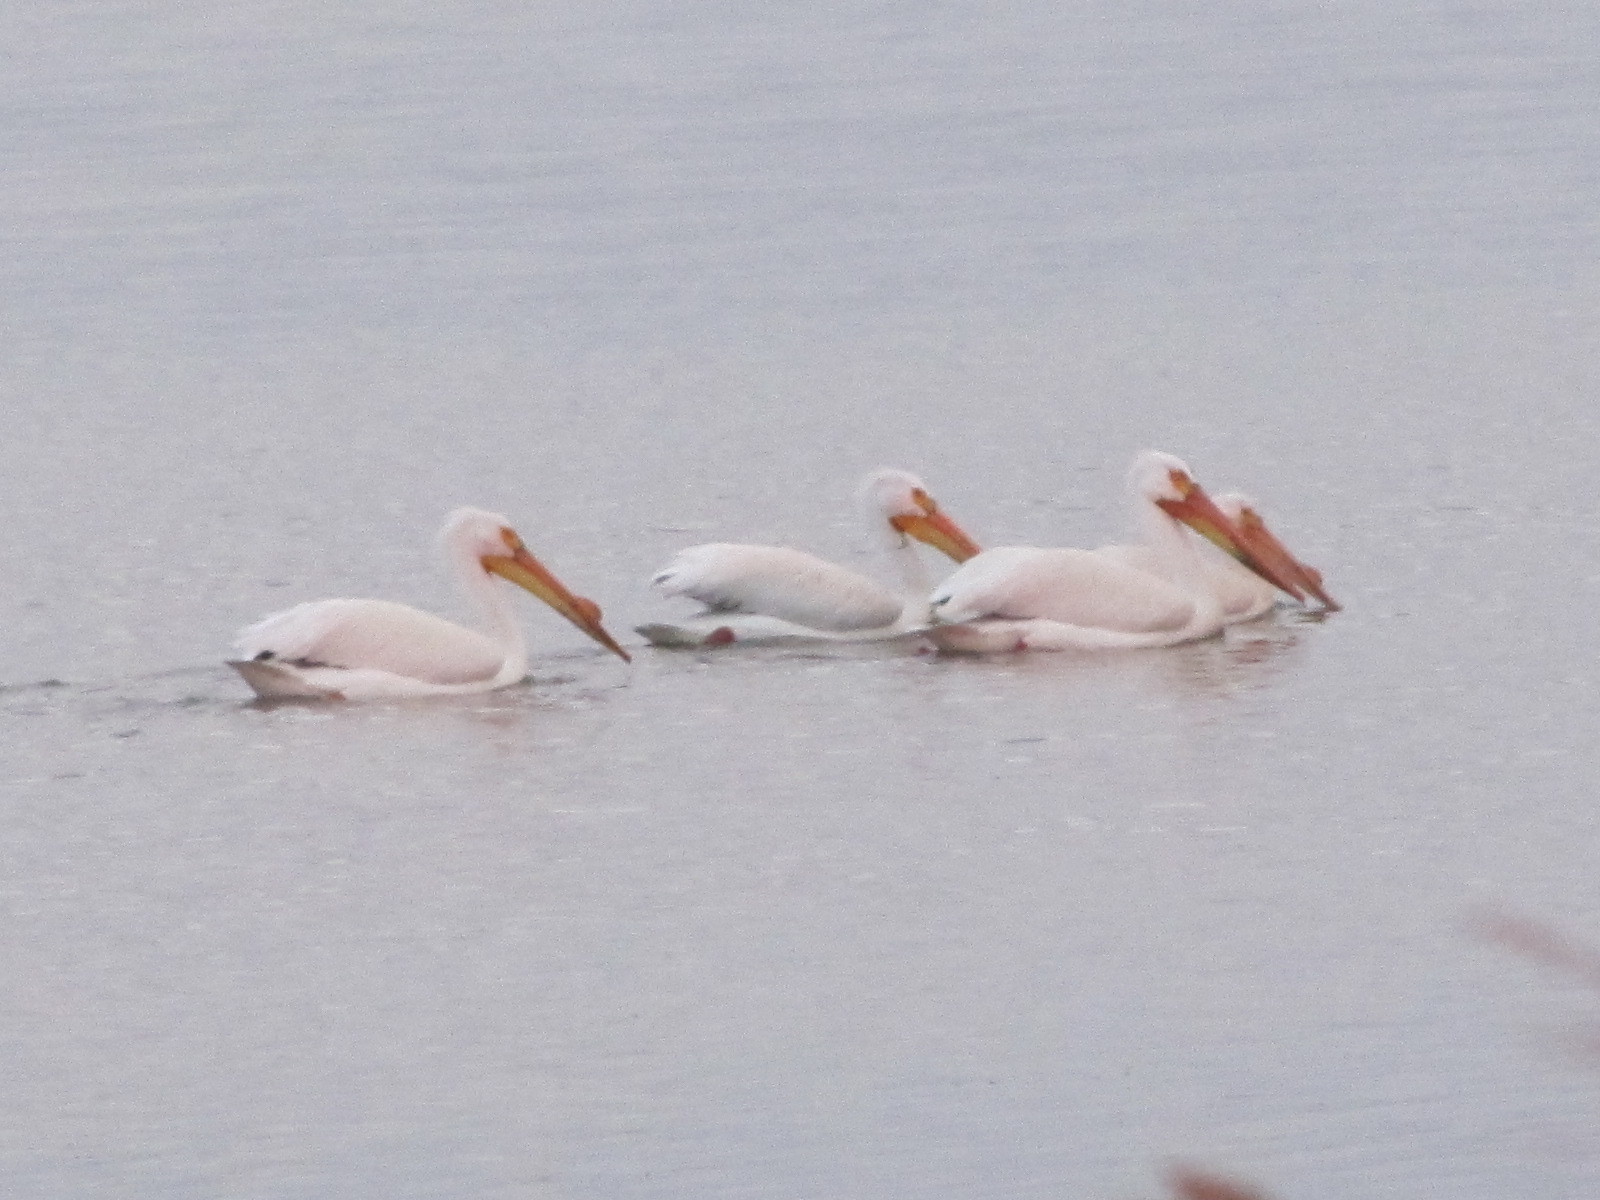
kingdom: Animalia
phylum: Chordata
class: Aves
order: Pelecaniformes
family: Pelecanidae
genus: Pelecanus
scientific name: Pelecanus erythrorhynchos
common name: American white pelican
